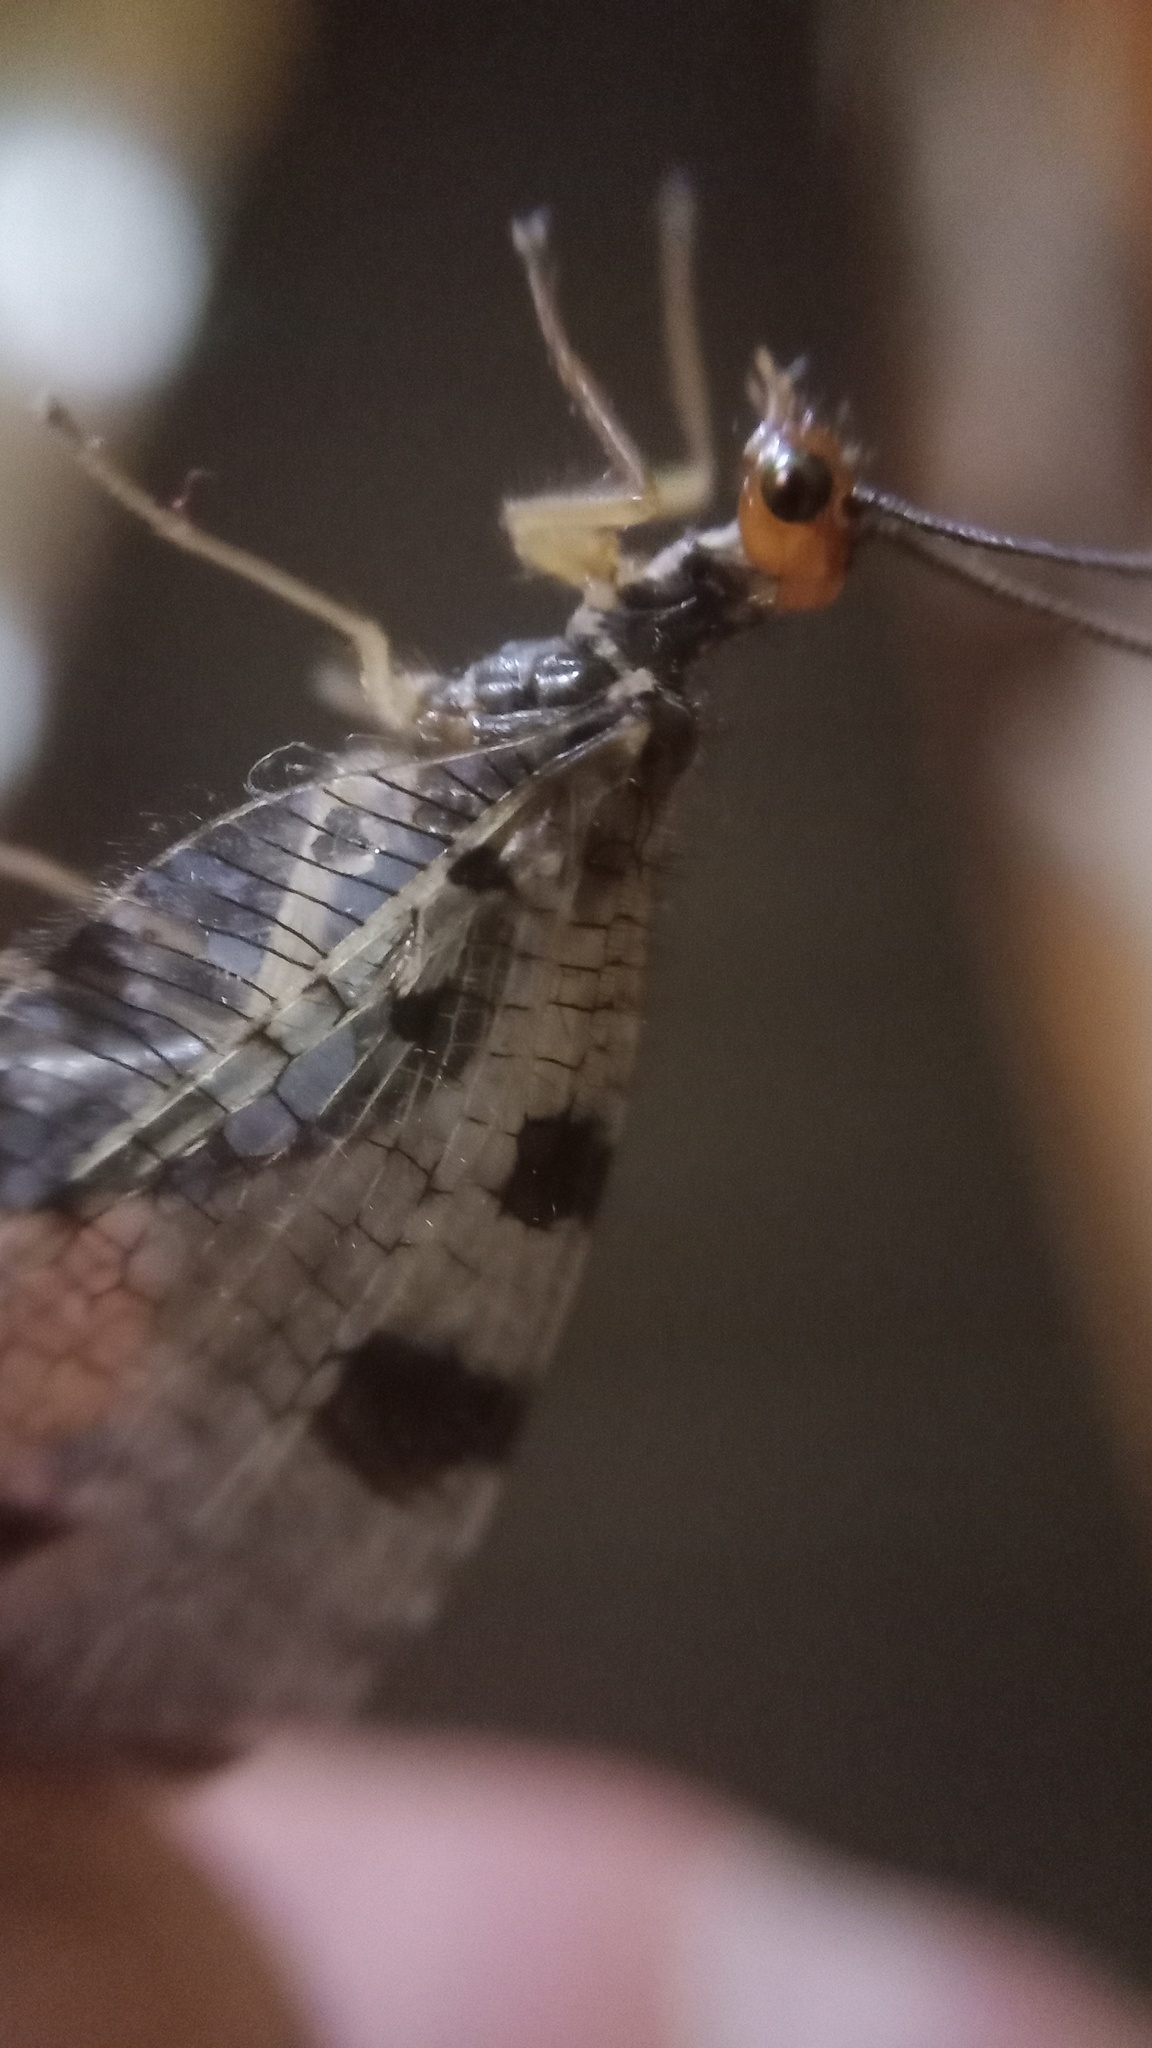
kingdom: Animalia
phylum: Arthropoda
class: Insecta
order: Neuroptera
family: Osmylidae
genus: Osmylus
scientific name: Osmylus fulvicephalus
